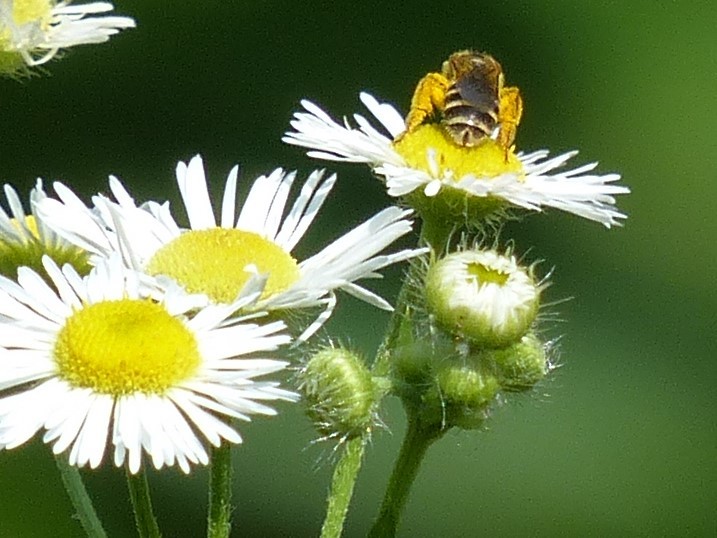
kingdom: Animalia
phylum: Arthropoda
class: Insecta
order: Hymenoptera
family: Halictidae
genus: Halictus
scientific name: Halictus ligatus
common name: Ligated furrow bee
